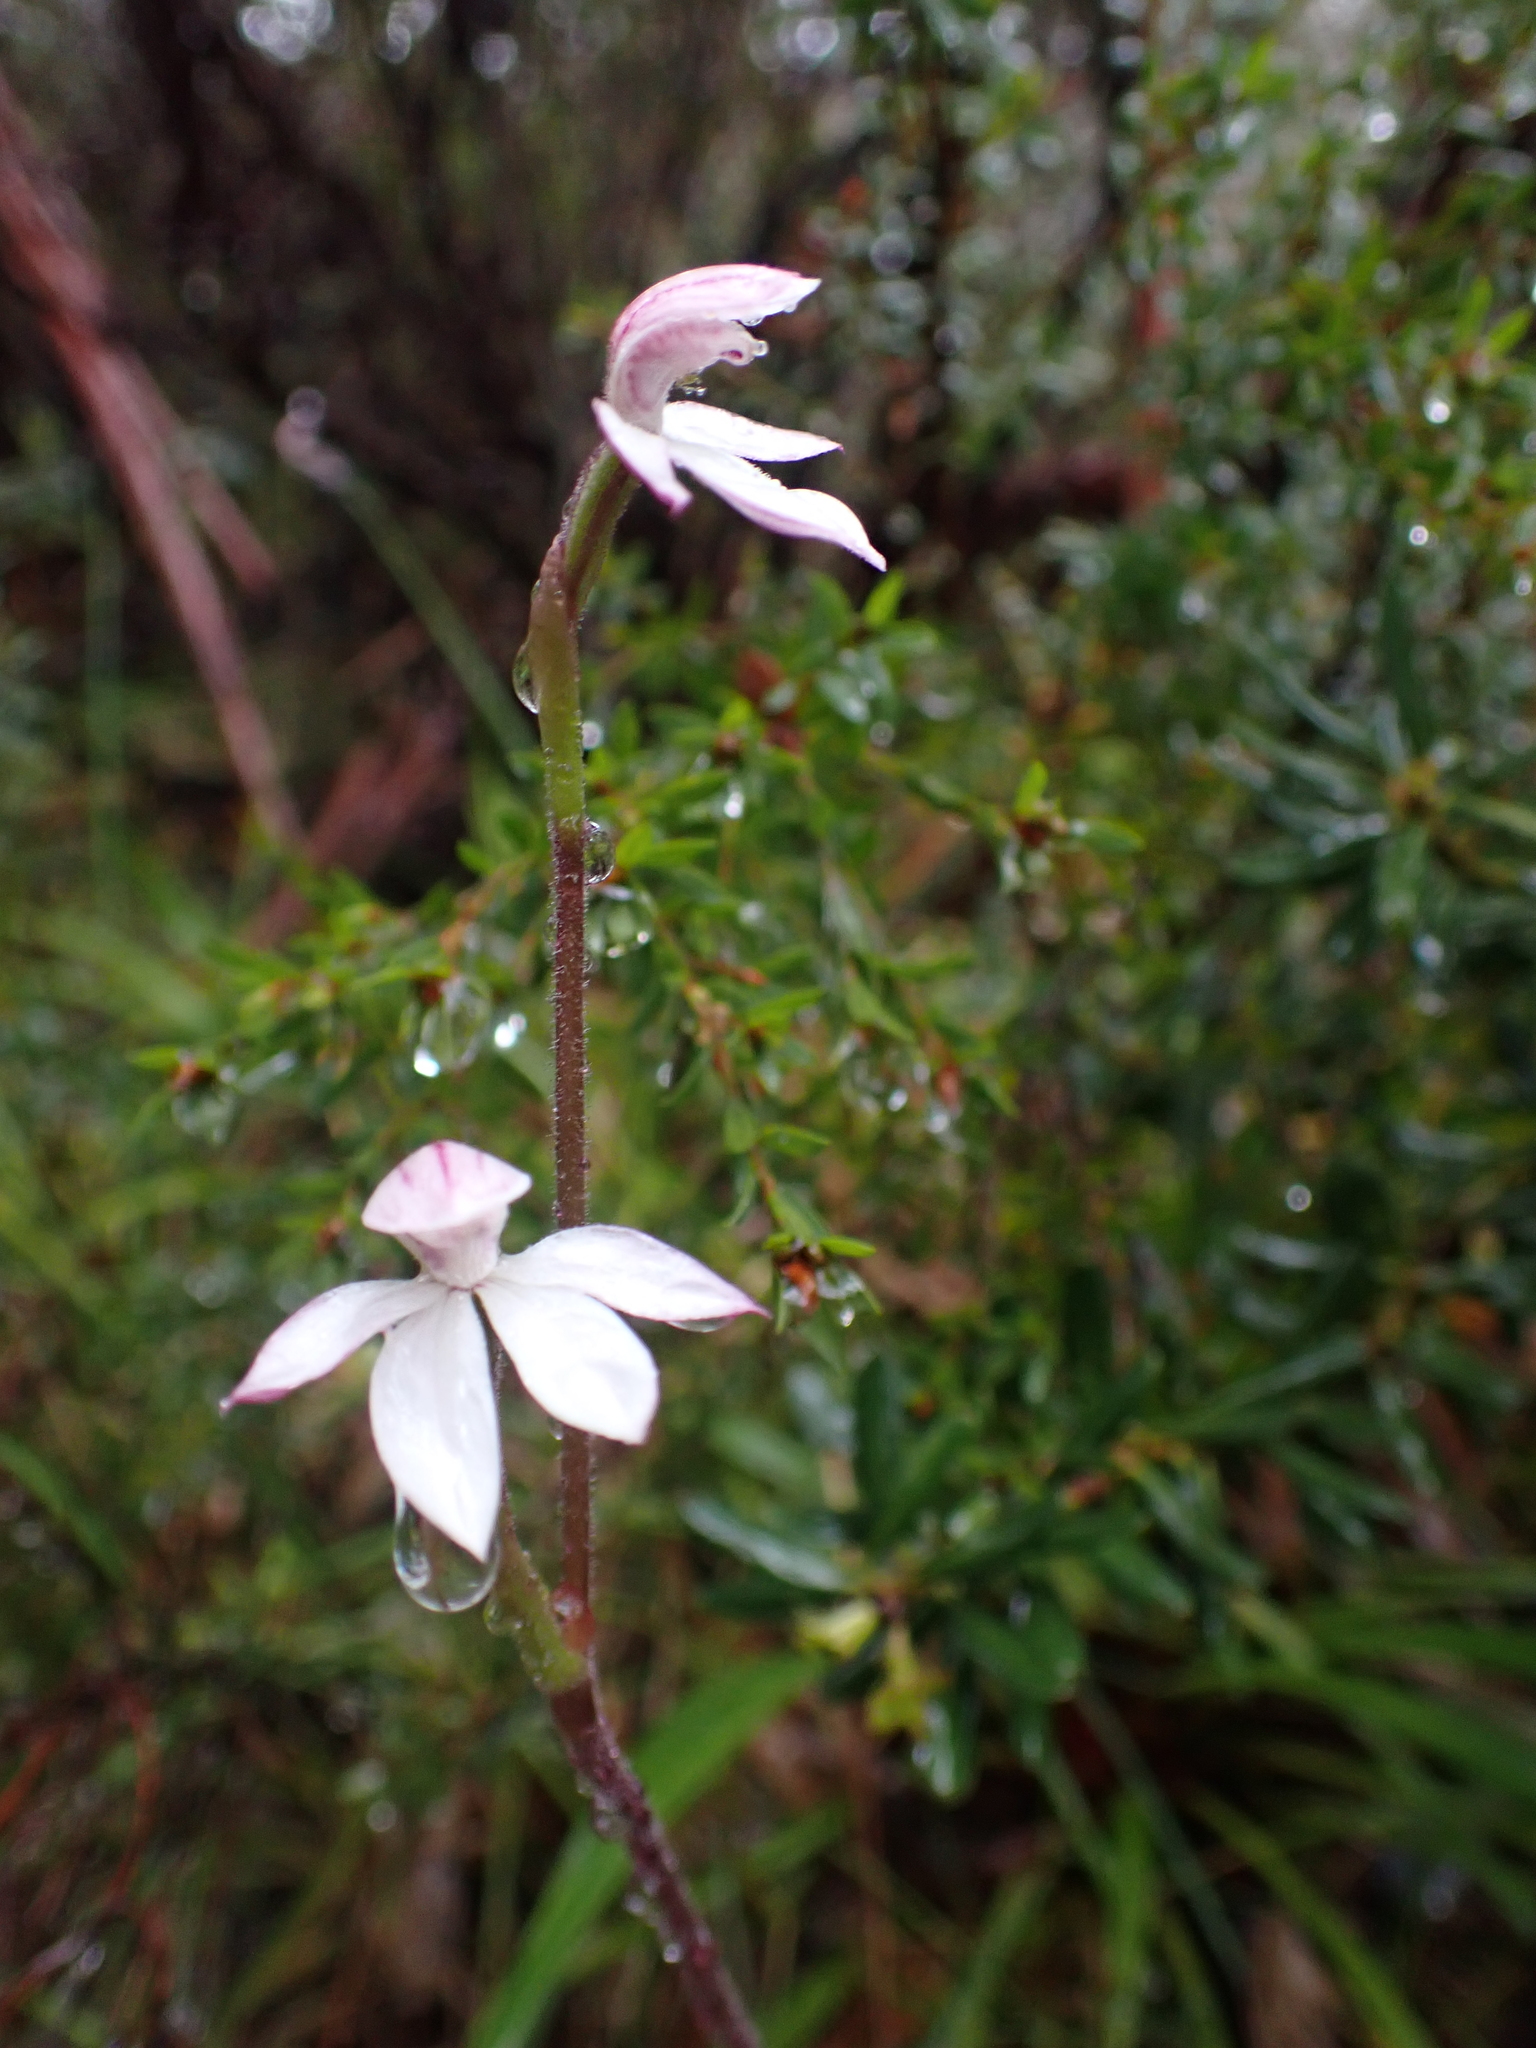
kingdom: Plantae
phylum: Tracheophyta
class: Liliopsida
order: Asparagales
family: Orchidaceae
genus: Caladenia
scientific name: Caladenia alpina
